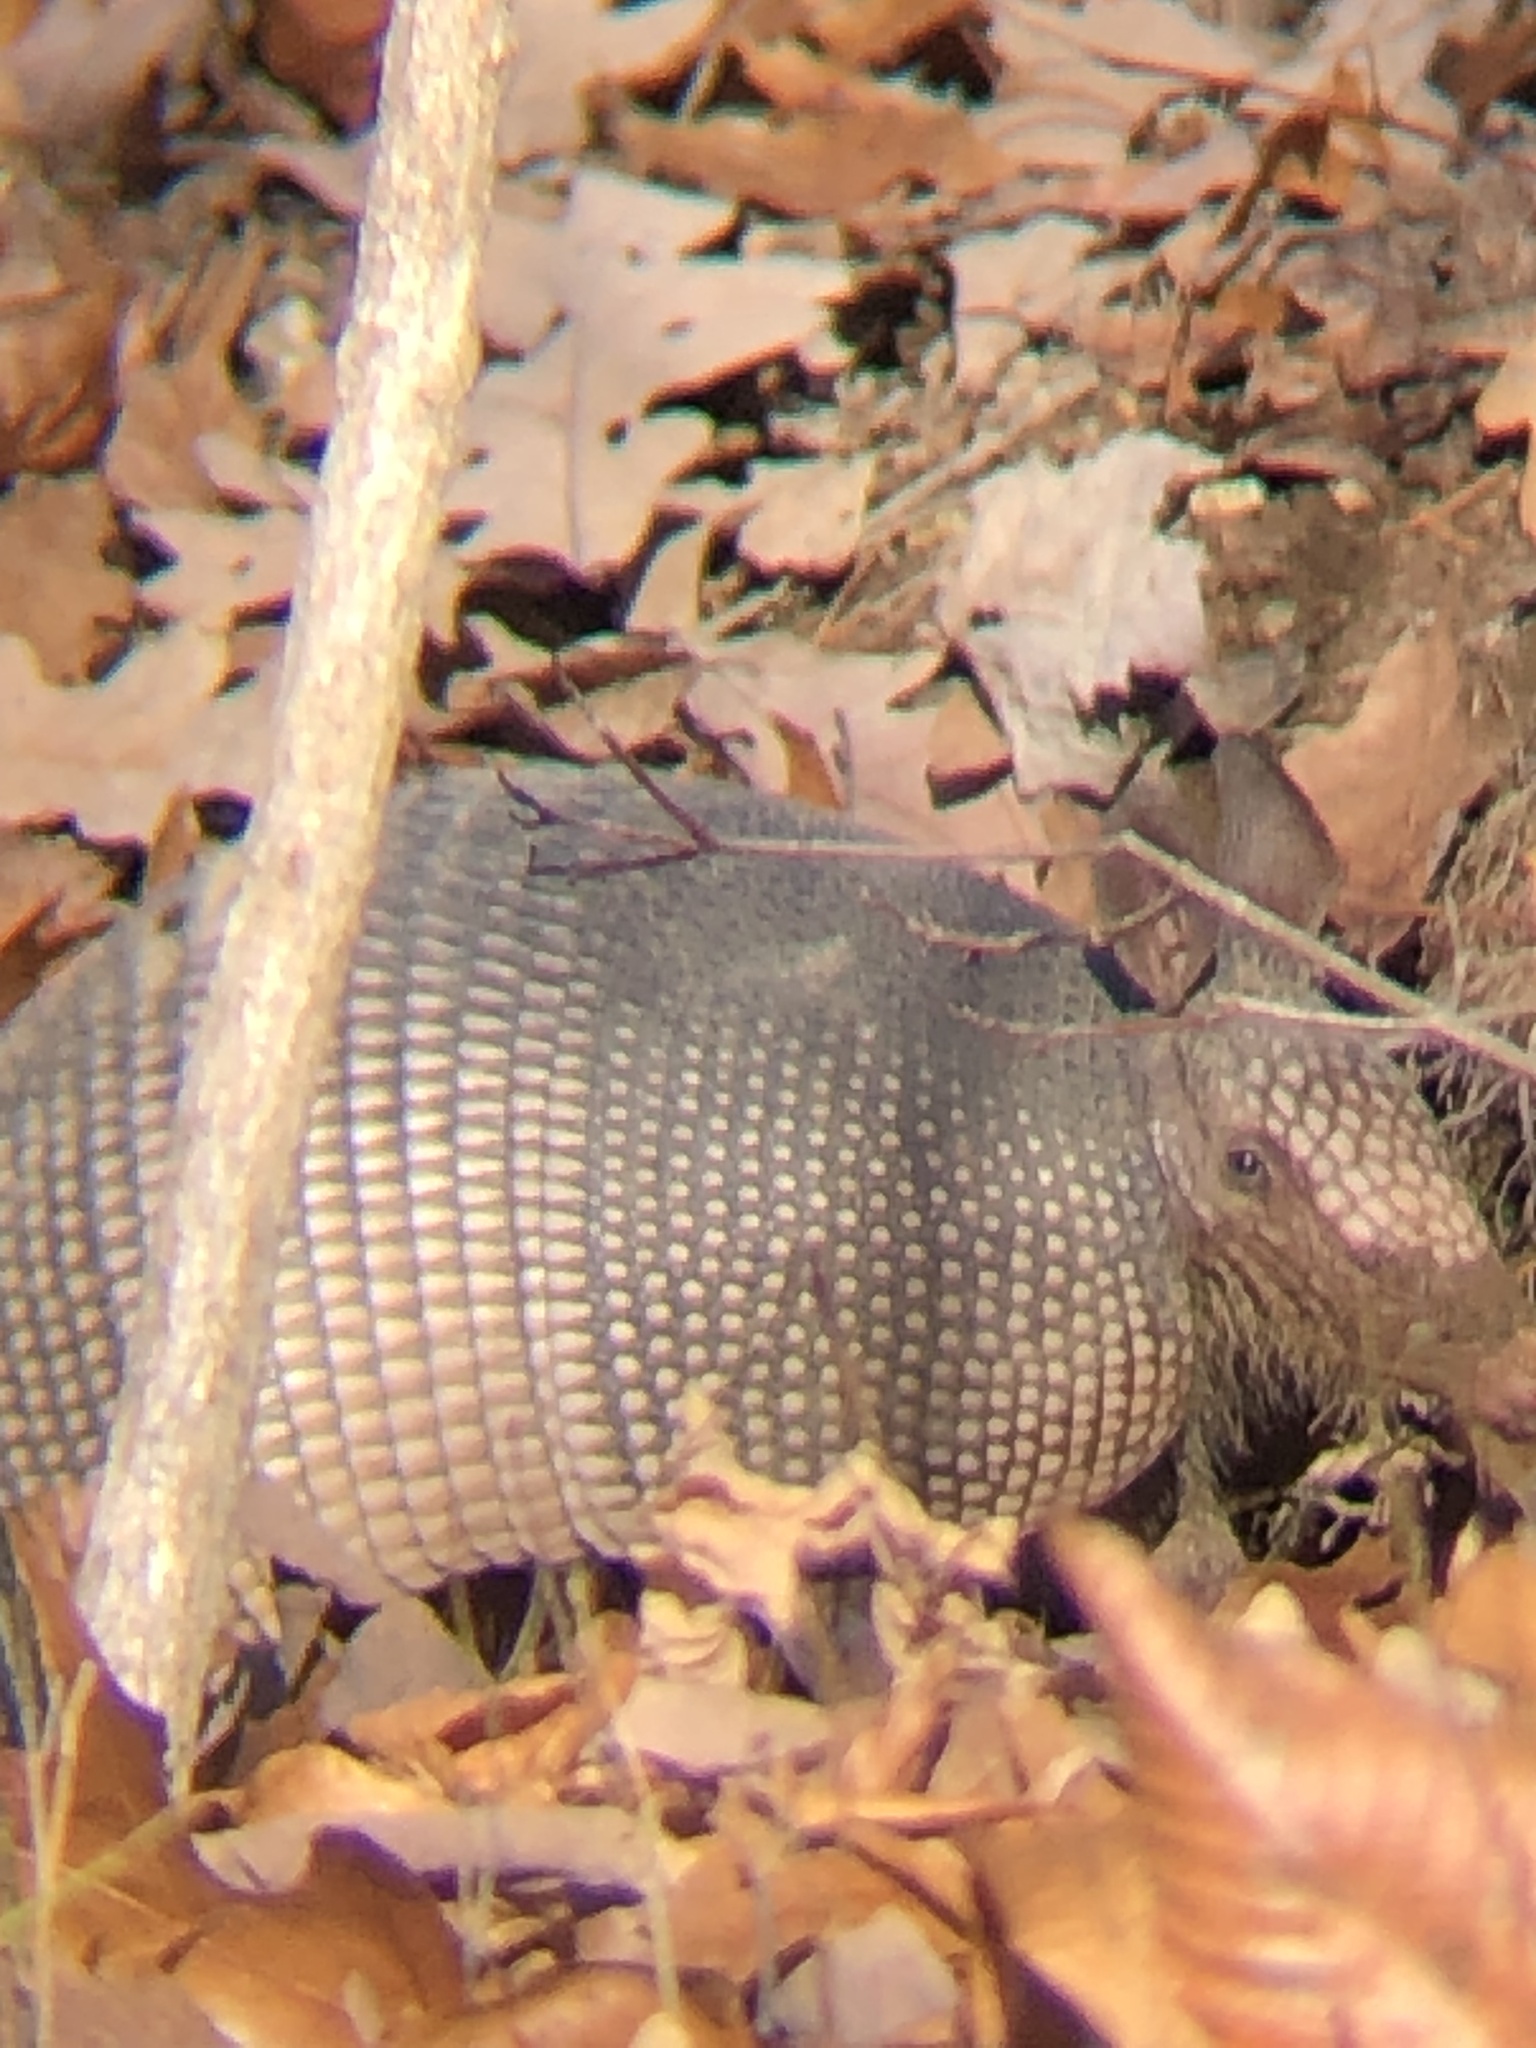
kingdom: Animalia
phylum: Chordata
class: Mammalia
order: Cingulata
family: Dasypodidae
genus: Dasypus
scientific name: Dasypus novemcinctus
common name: Nine-banded armadillo
